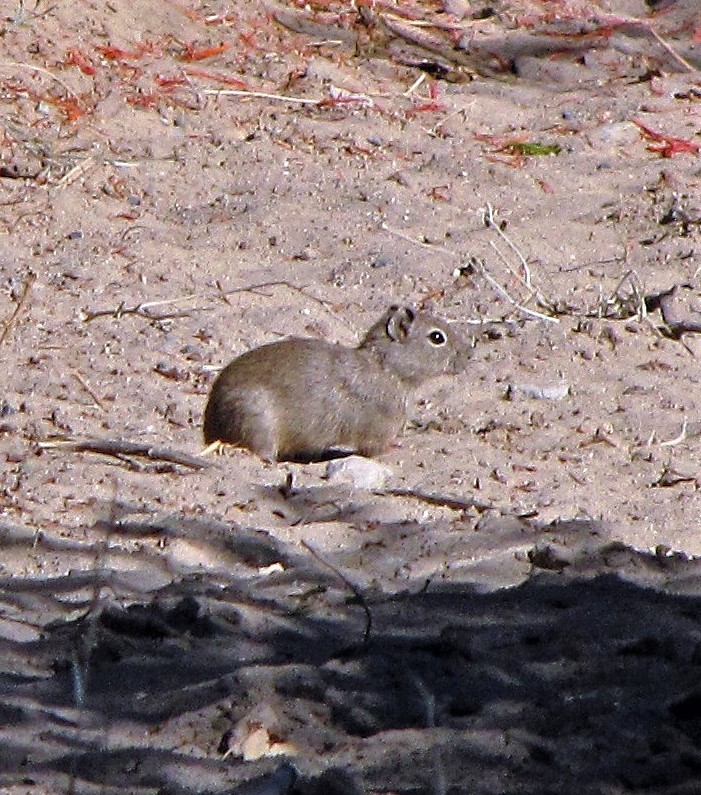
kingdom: Animalia
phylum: Chordata
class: Mammalia
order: Rodentia
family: Caviidae
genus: Microcavia
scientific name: Microcavia
